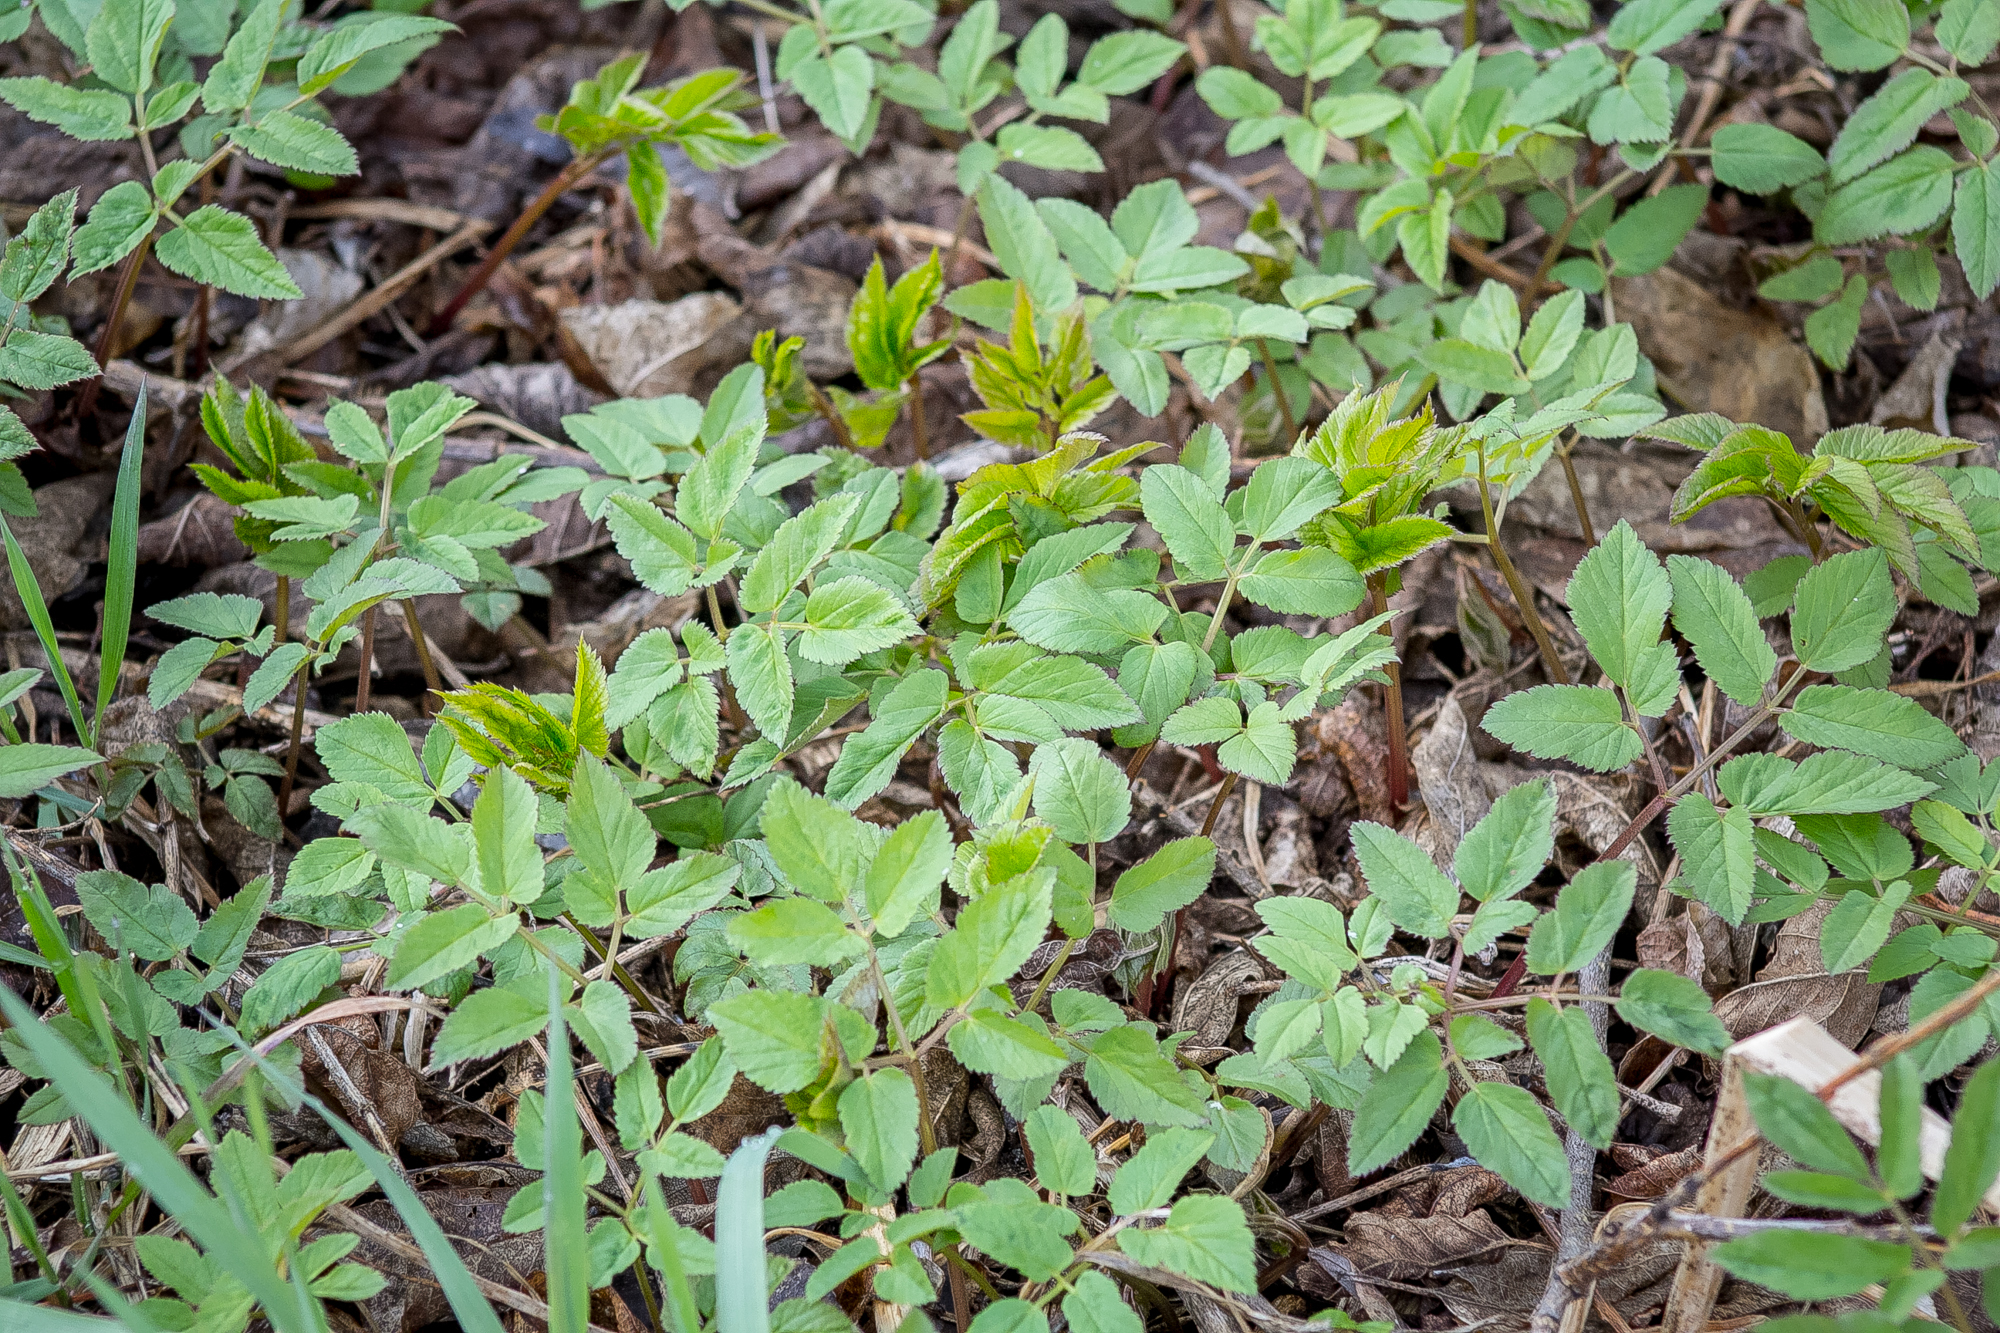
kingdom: Plantae
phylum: Tracheophyta
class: Magnoliopsida
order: Apiales
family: Apiaceae
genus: Aegopodium
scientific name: Aegopodium podagraria
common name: Ground-elder
